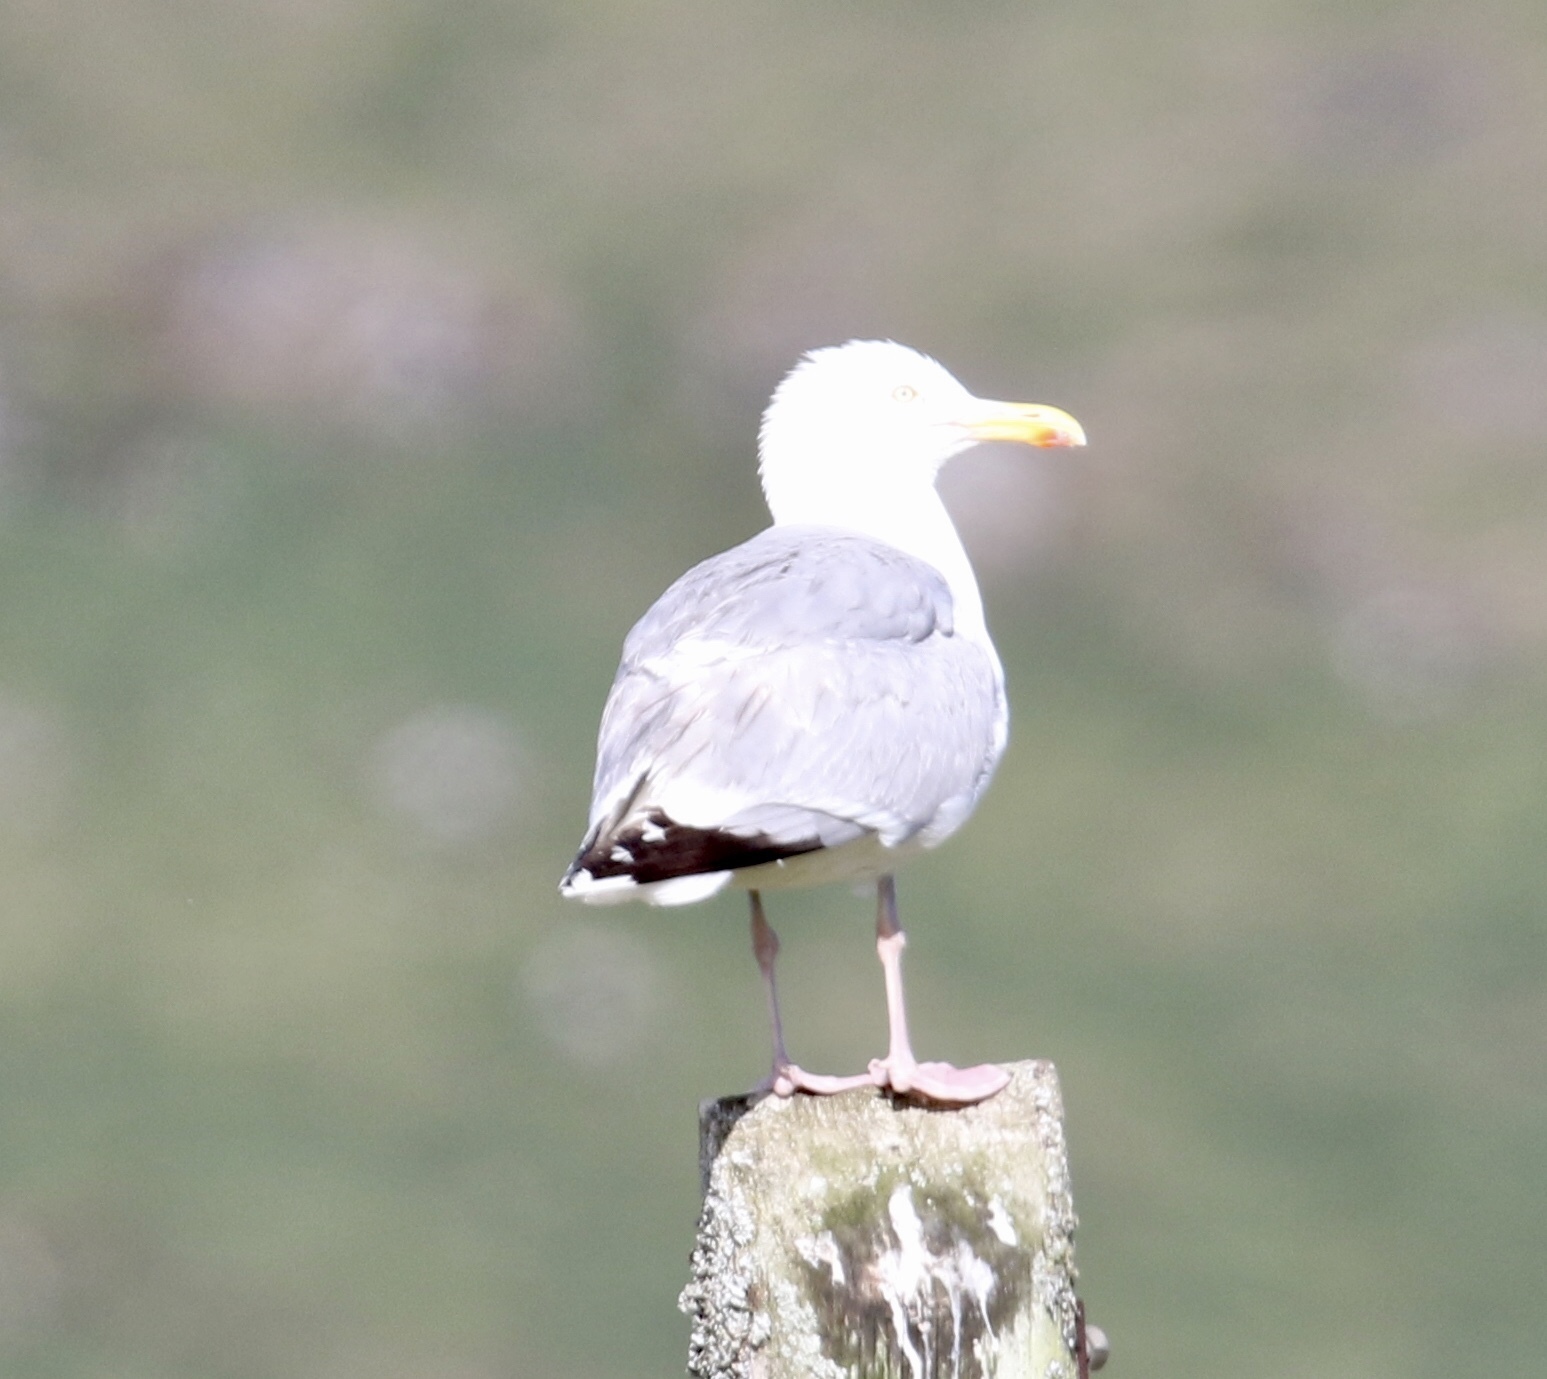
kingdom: Animalia
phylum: Chordata
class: Aves
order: Charadriiformes
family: Laridae
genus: Larus
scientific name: Larus argentatus
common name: Herring gull
